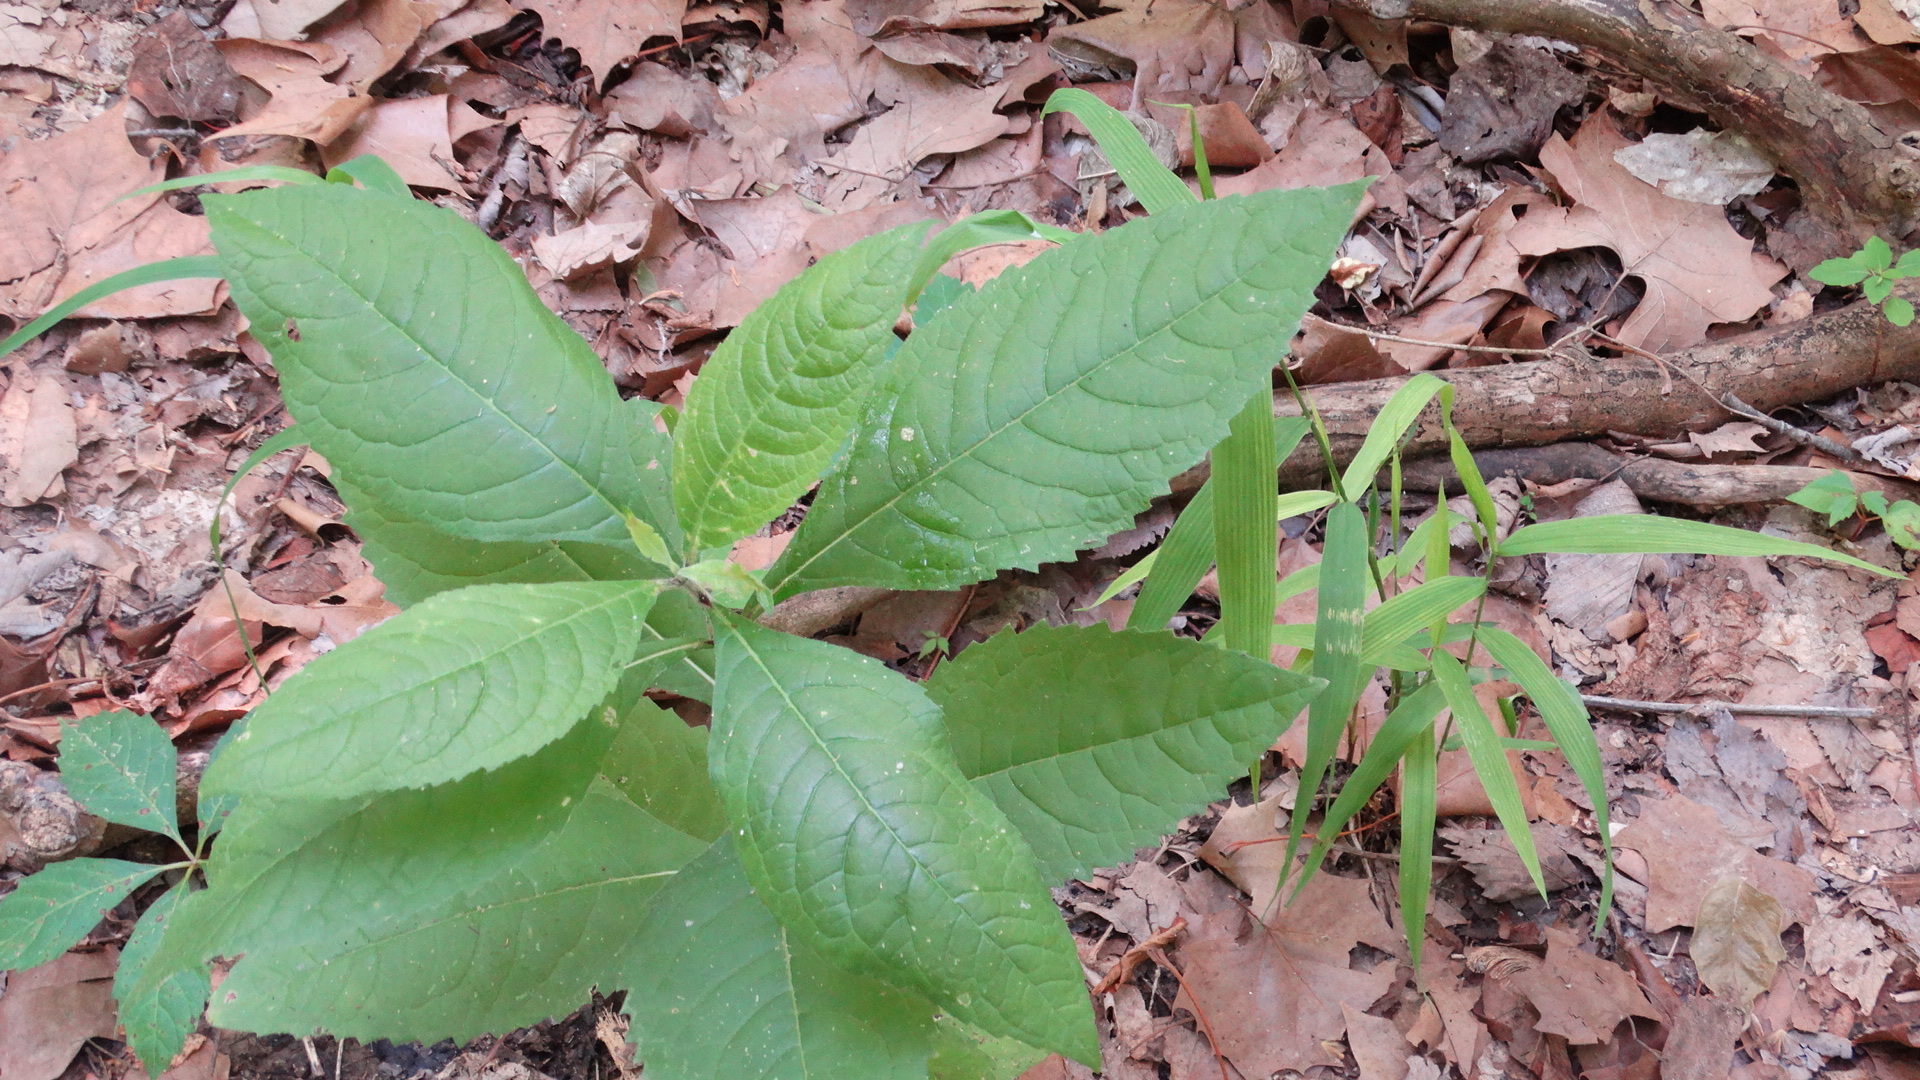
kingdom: Plantae
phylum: Tracheophyta
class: Magnoliopsida
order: Asterales
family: Asteraceae
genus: Verbesina
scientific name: Verbesina alternifolia
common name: Wingstem
